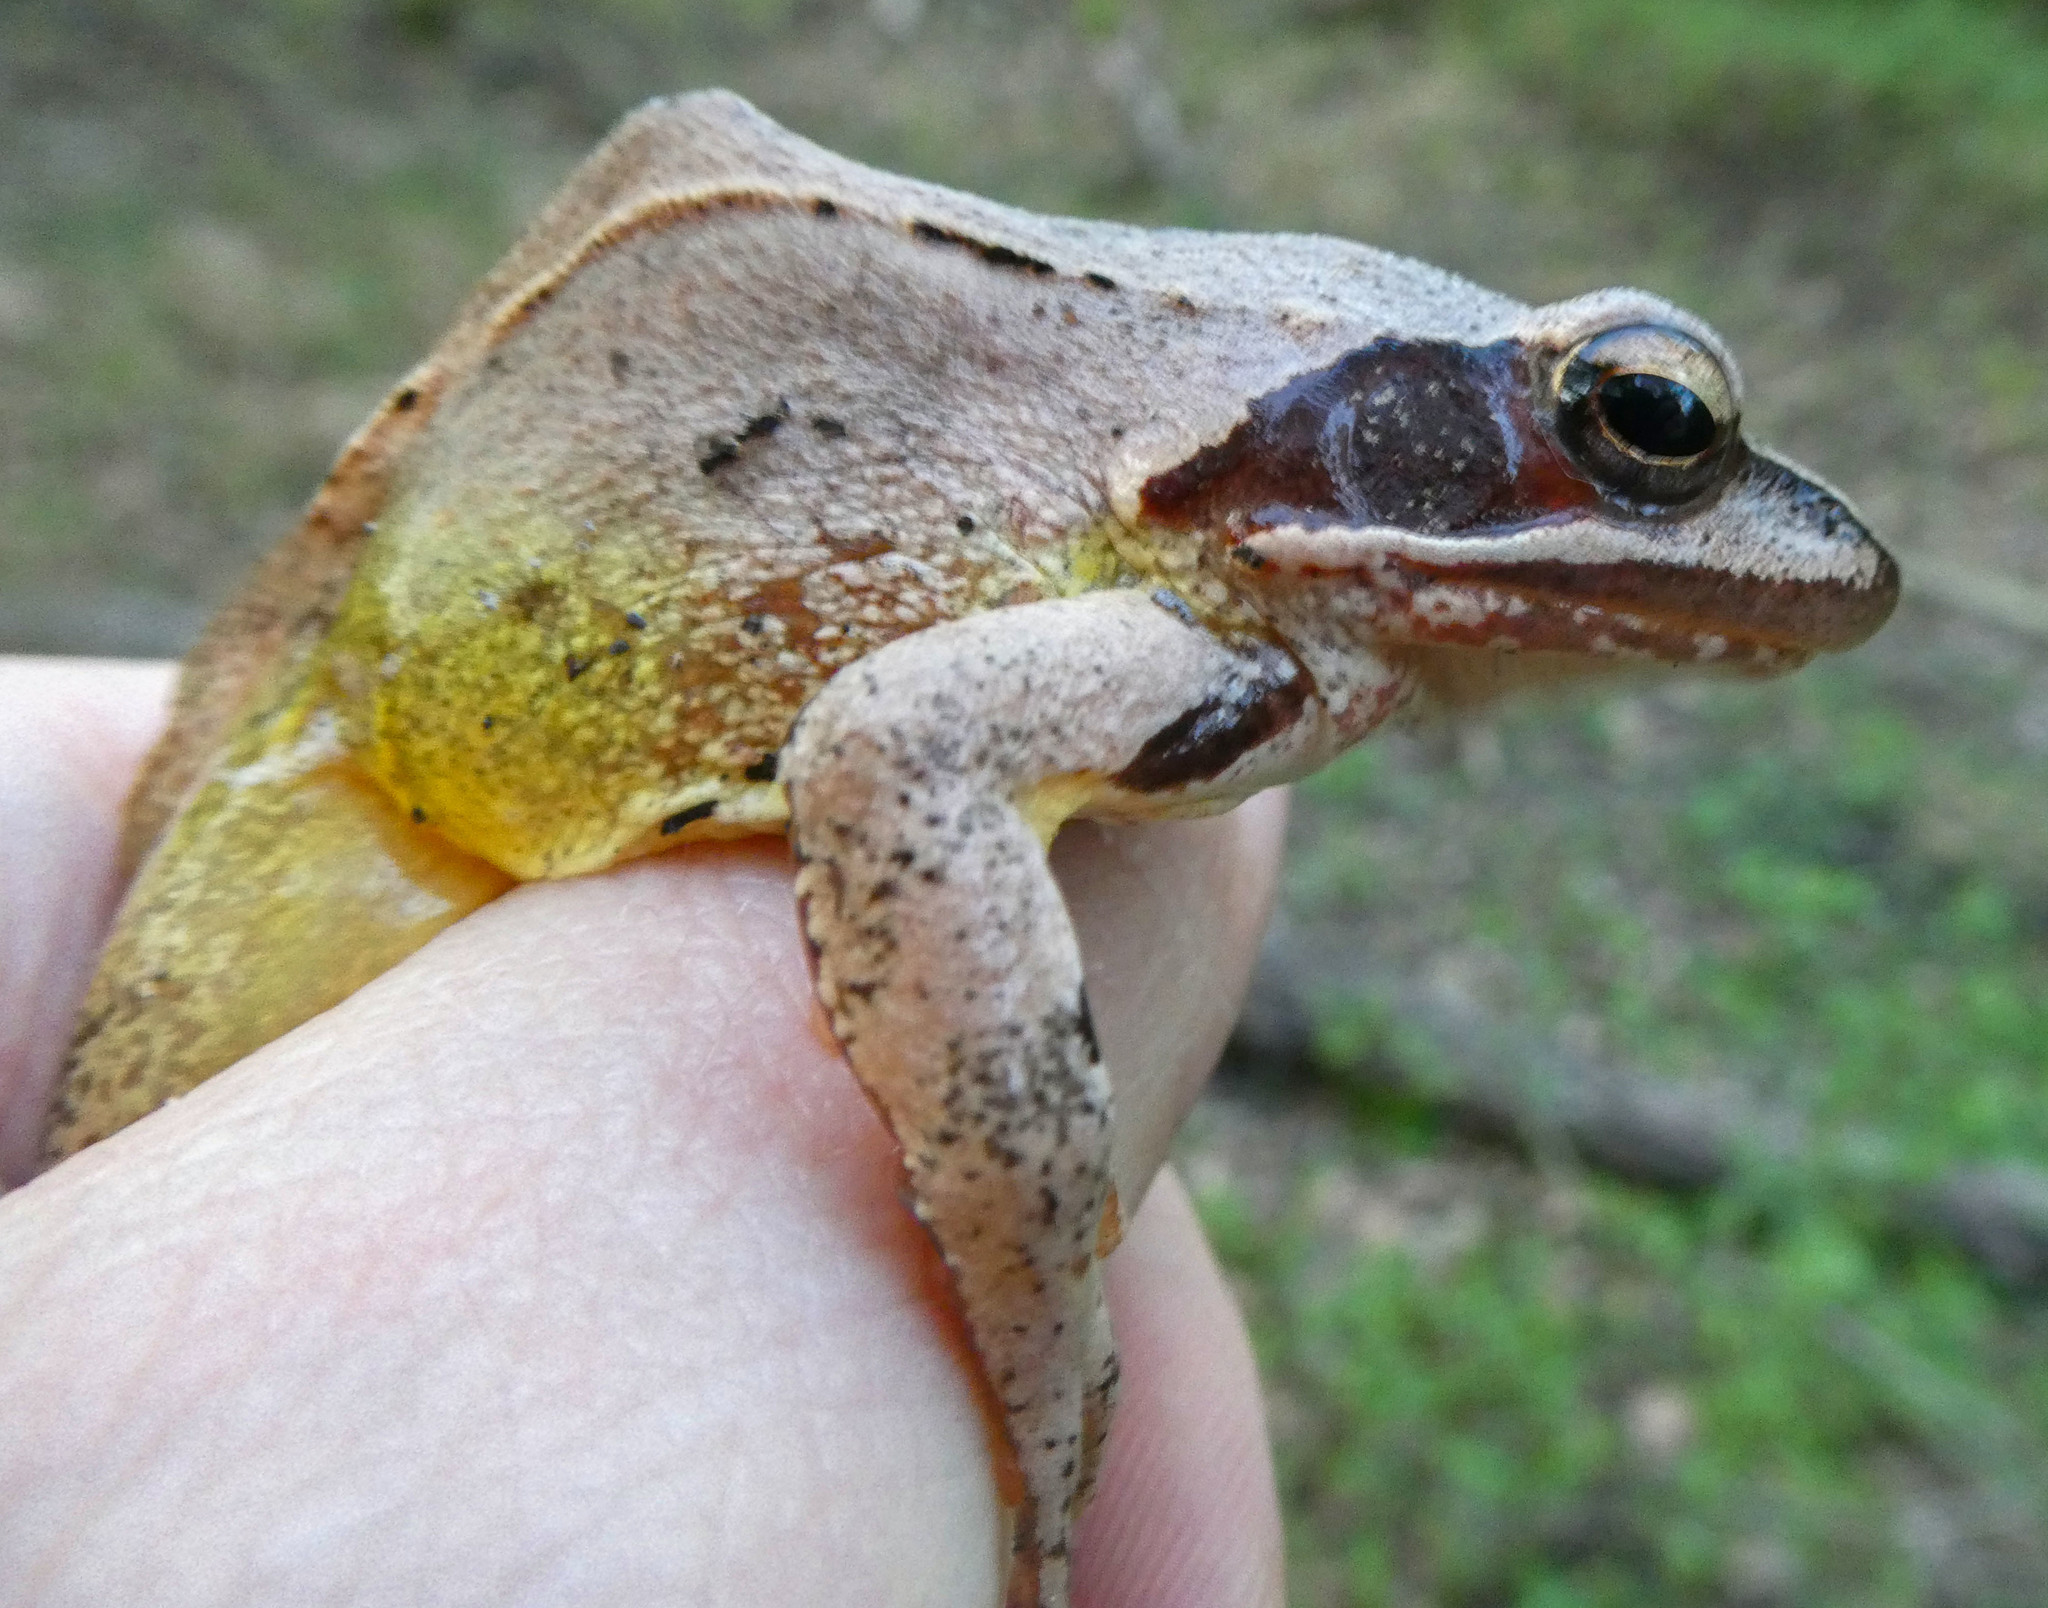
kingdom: Animalia
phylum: Chordata
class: Amphibia
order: Anura
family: Ranidae
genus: Rana
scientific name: Rana dalmatina
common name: Agile frog
